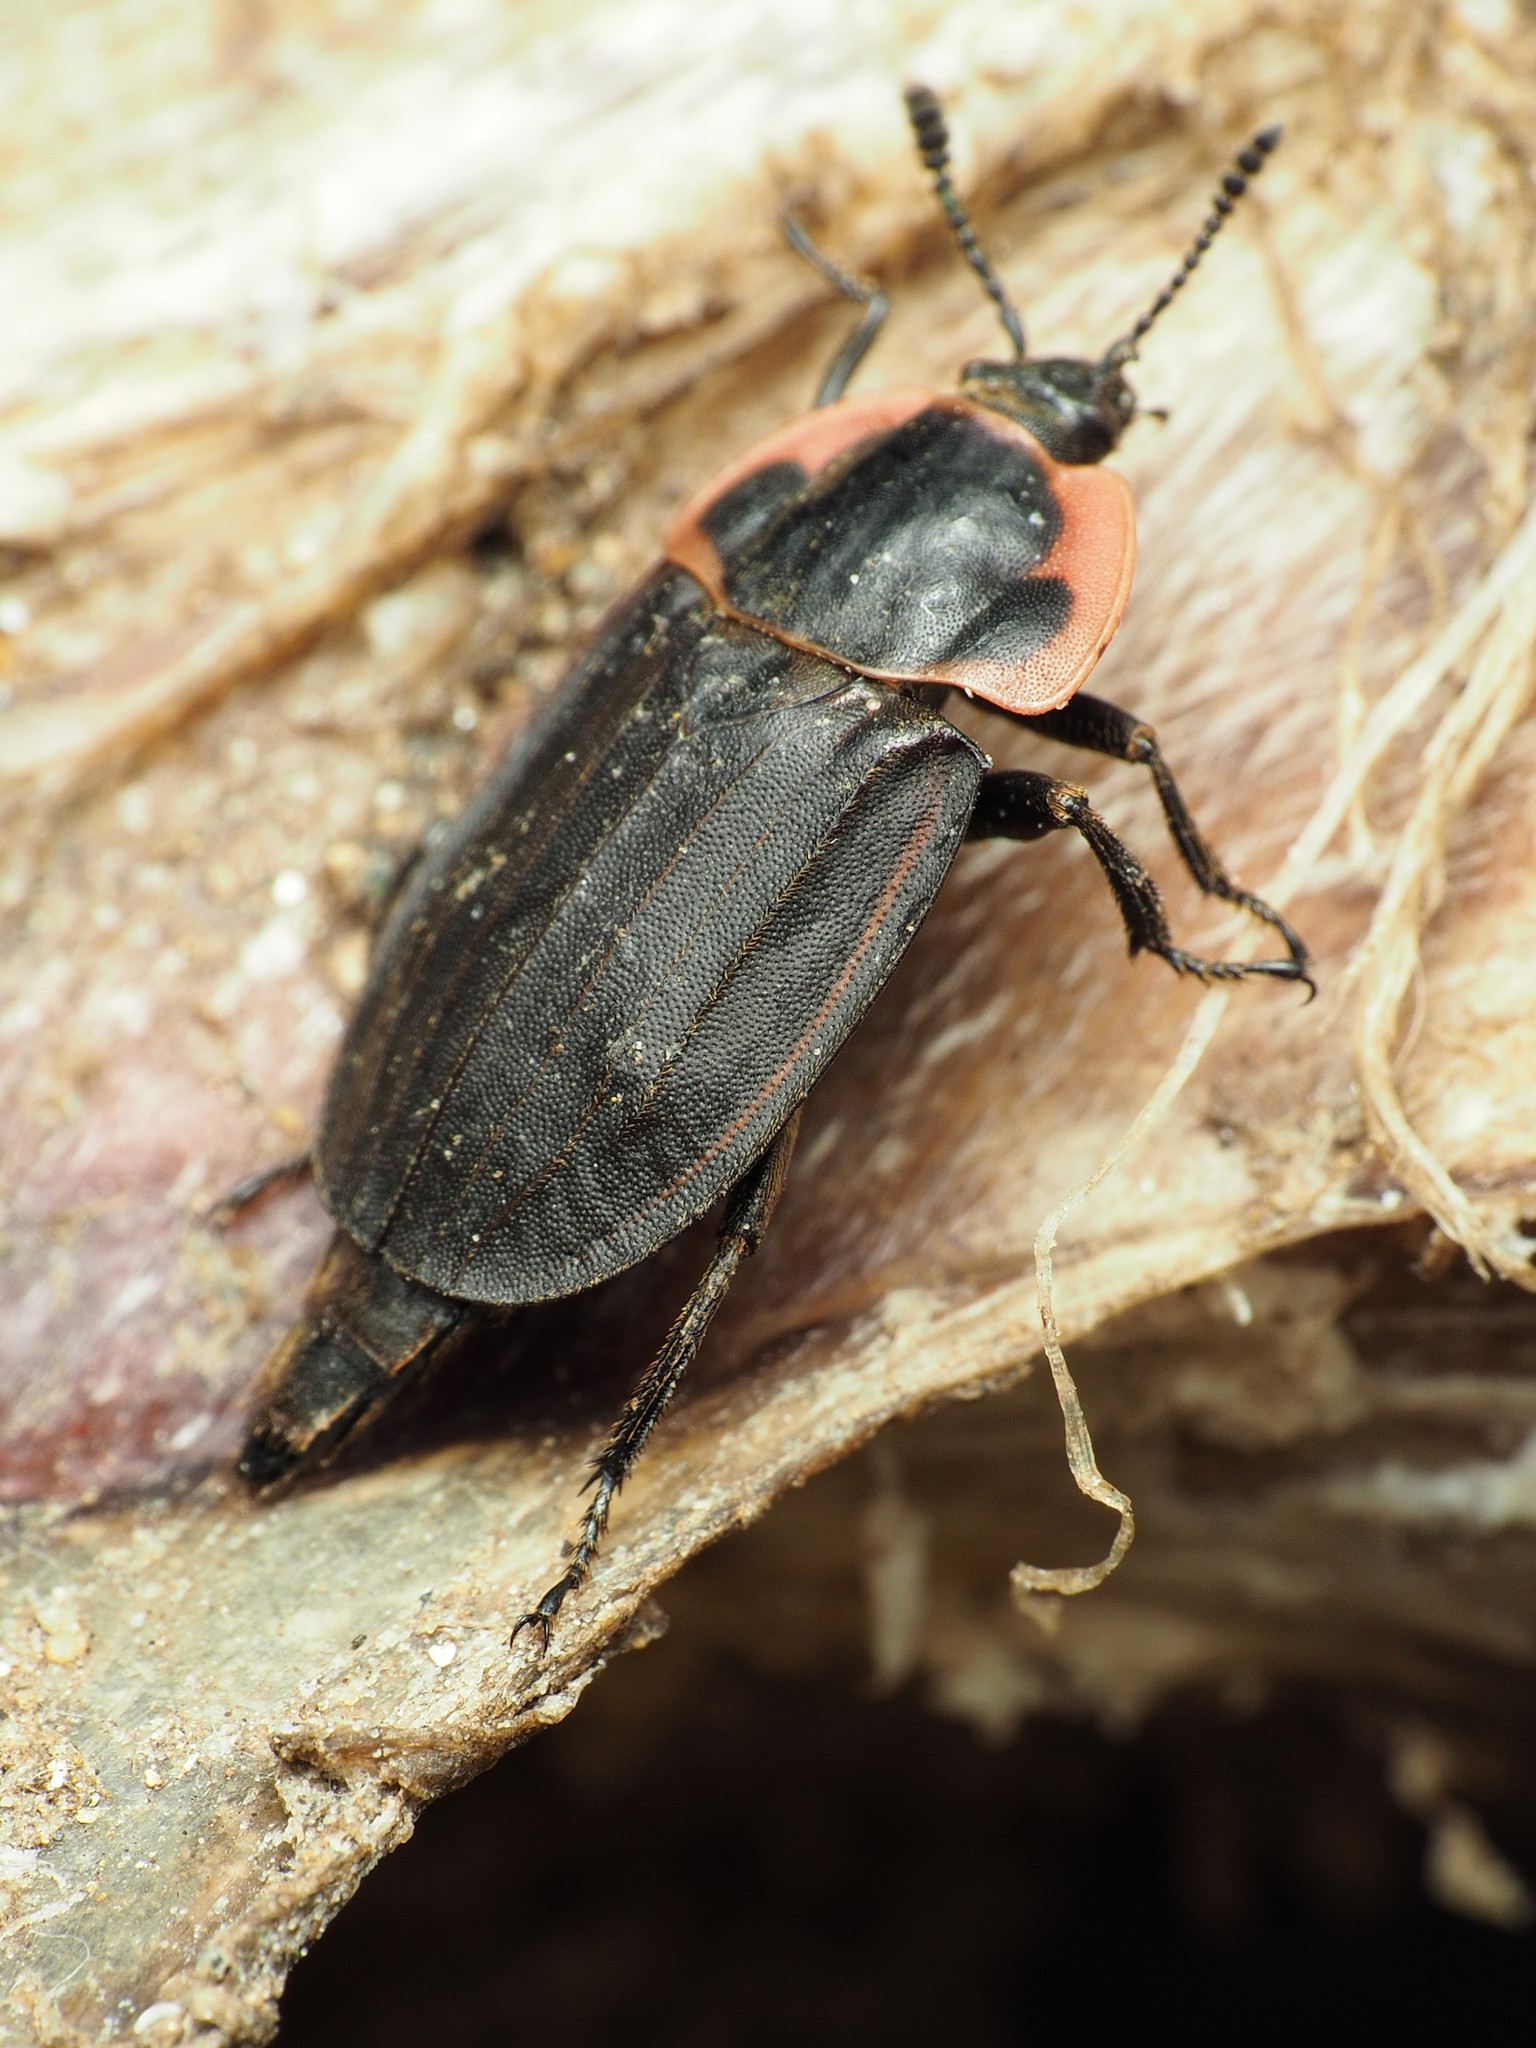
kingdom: Animalia
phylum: Arthropoda
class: Insecta
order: Coleoptera
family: Staphylinidae
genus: Oiceoptoma
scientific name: Oiceoptoma noveboracense
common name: Margined carrion beetle
